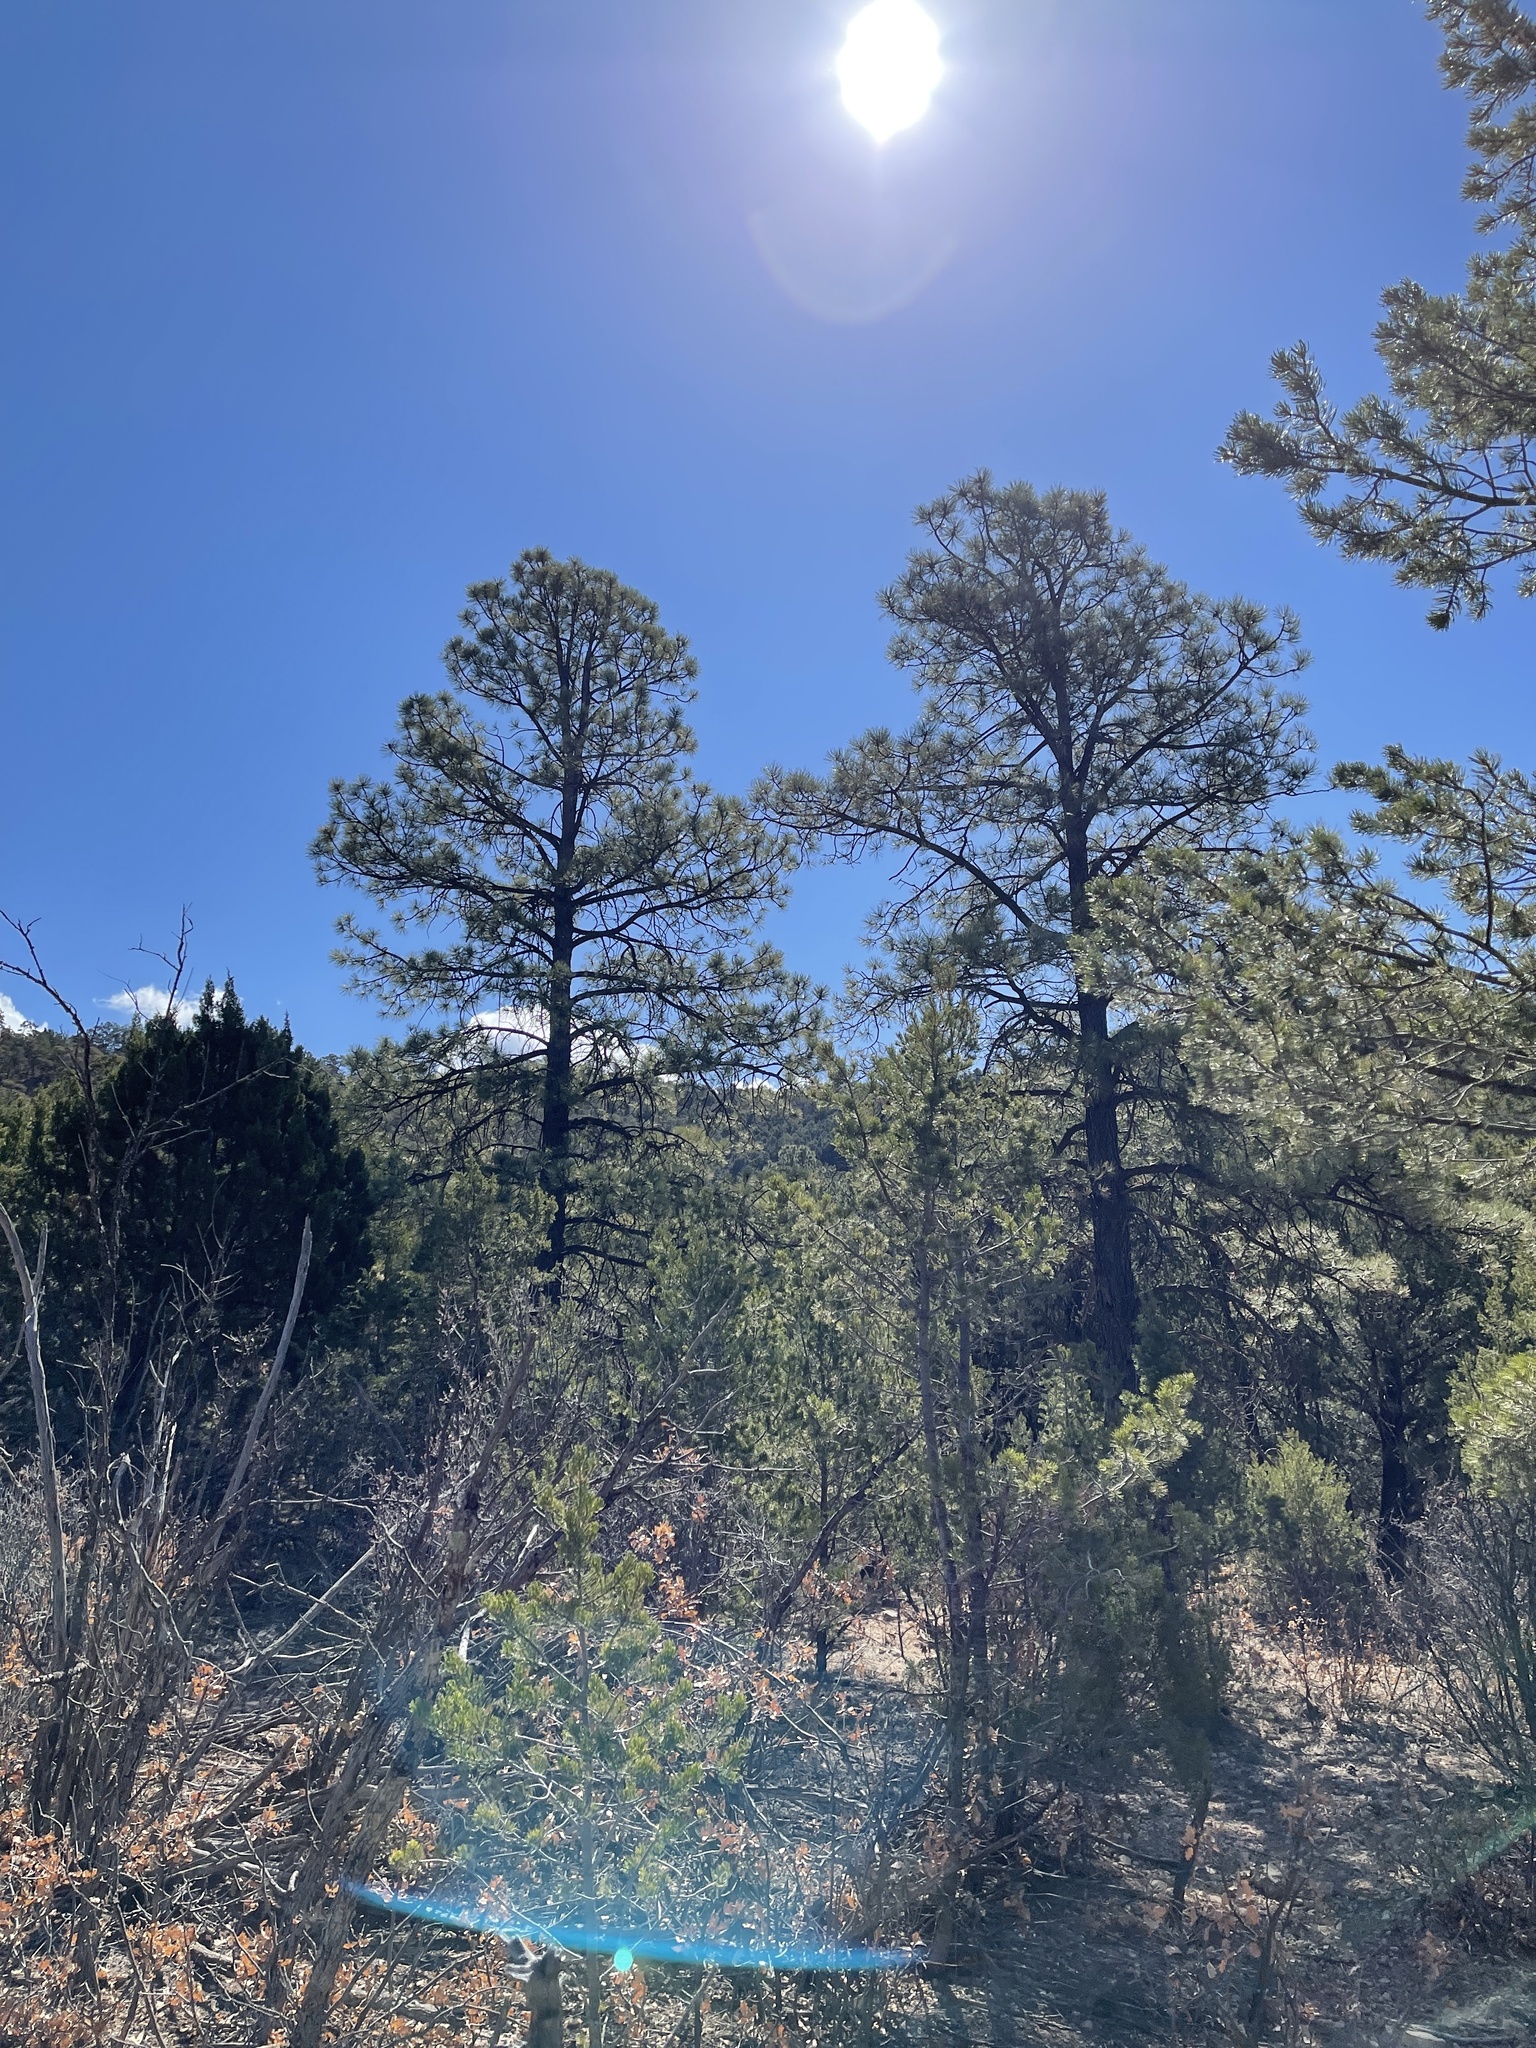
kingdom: Plantae
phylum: Tracheophyta
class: Pinopsida
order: Pinales
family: Pinaceae
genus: Pinus
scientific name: Pinus ponderosa
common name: Western yellow-pine
